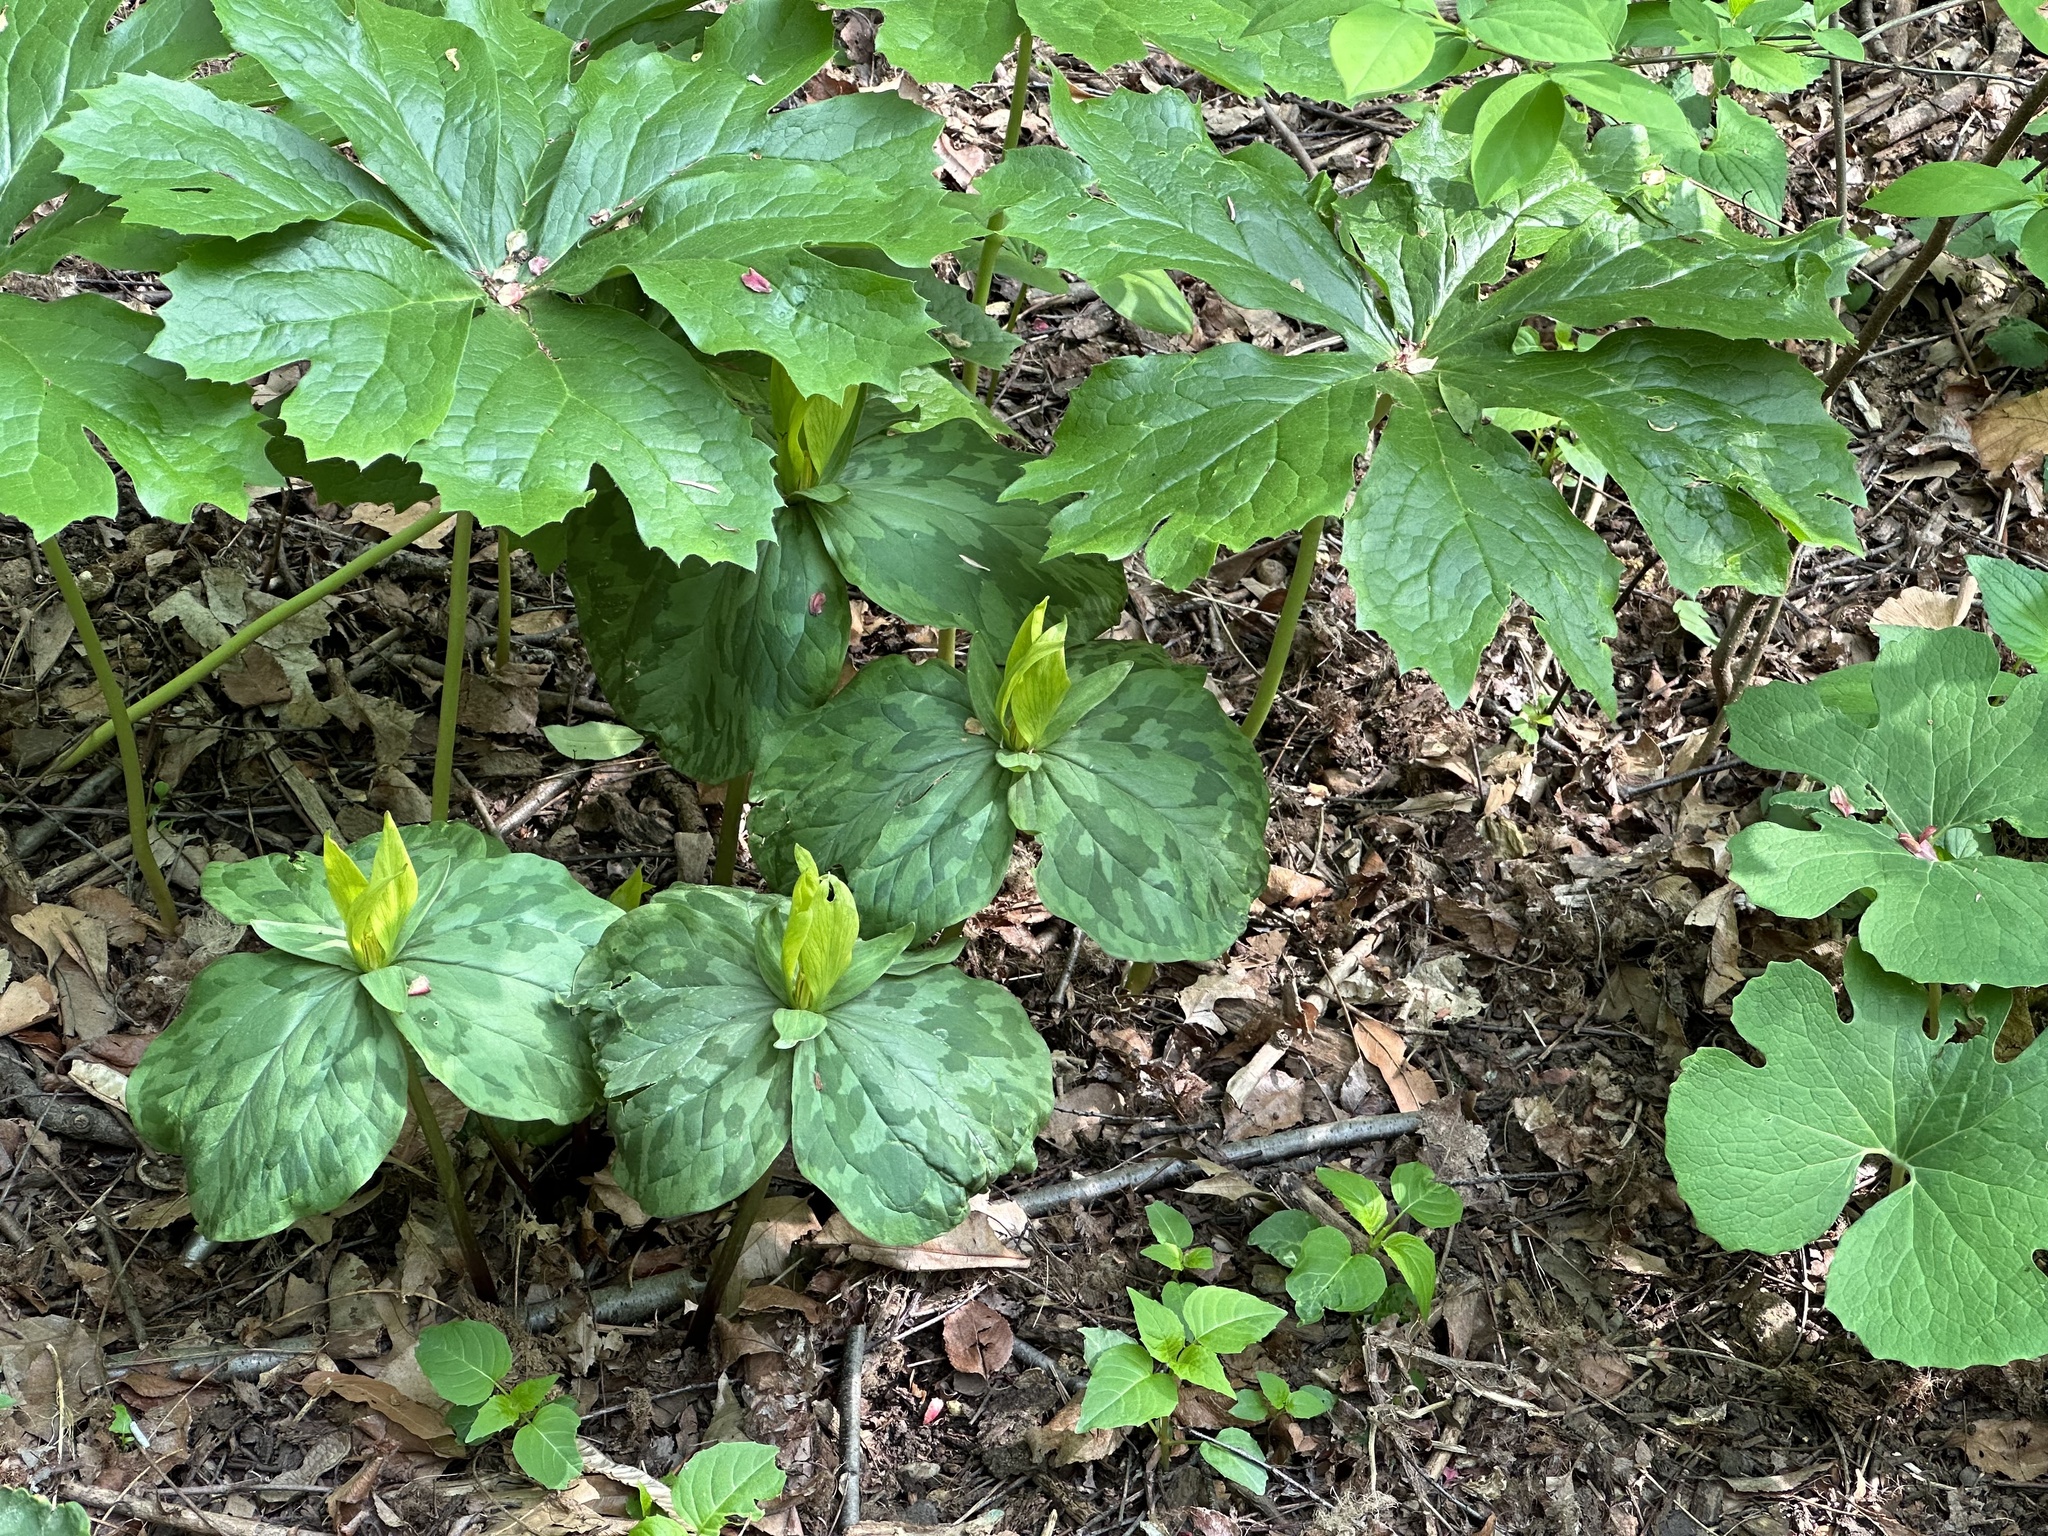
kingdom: Plantae
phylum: Tracheophyta
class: Liliopsida
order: Liliales
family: Melanthiaceae
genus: Trillium
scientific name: Trillium luteum
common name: Wax trillium
